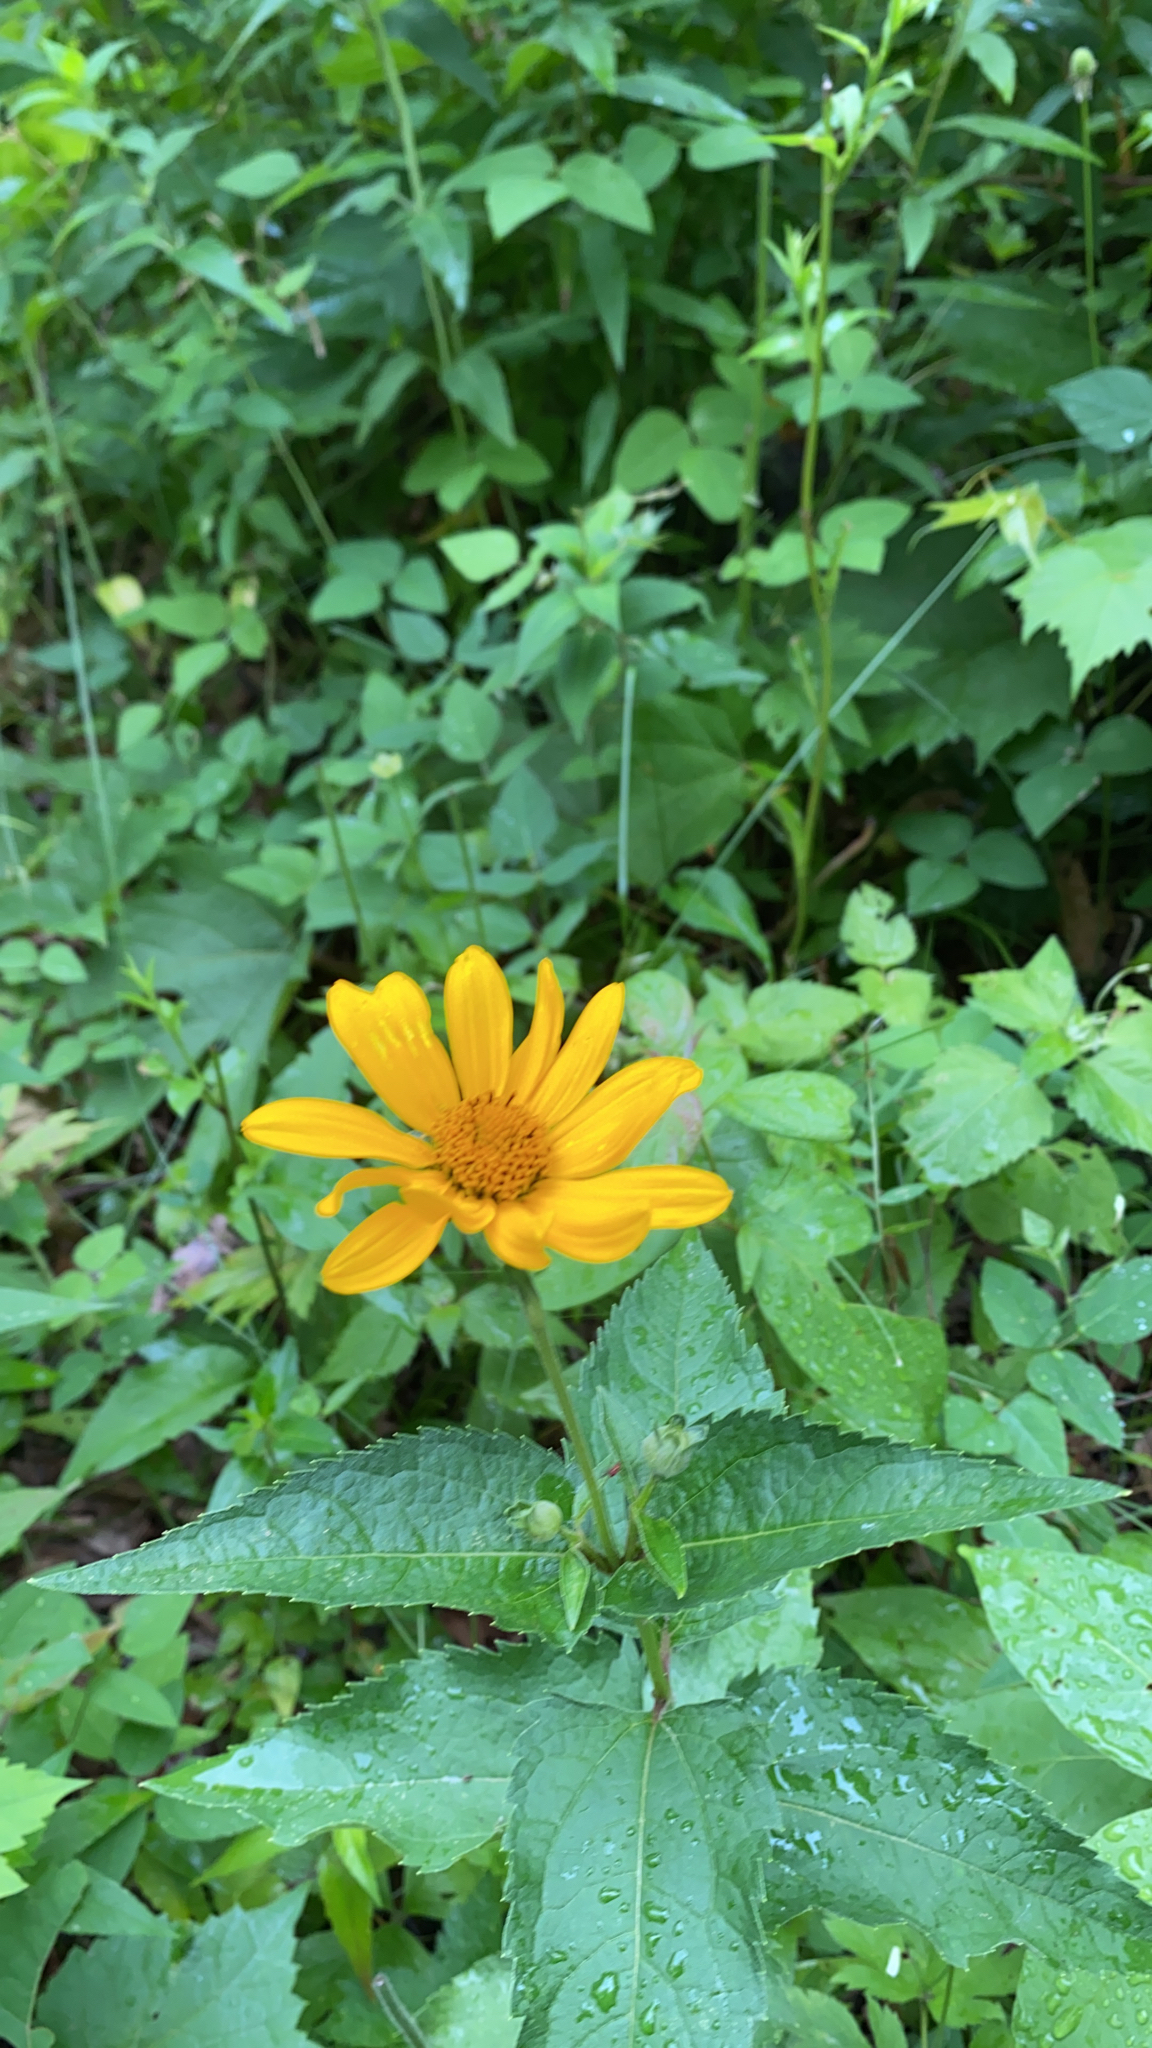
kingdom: Plantae
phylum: Tracheophyta
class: Magnoliopsida
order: Asterales
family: Asteraceae
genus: Heliopsis
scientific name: Heliopsis helianthoides
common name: False sunflower
